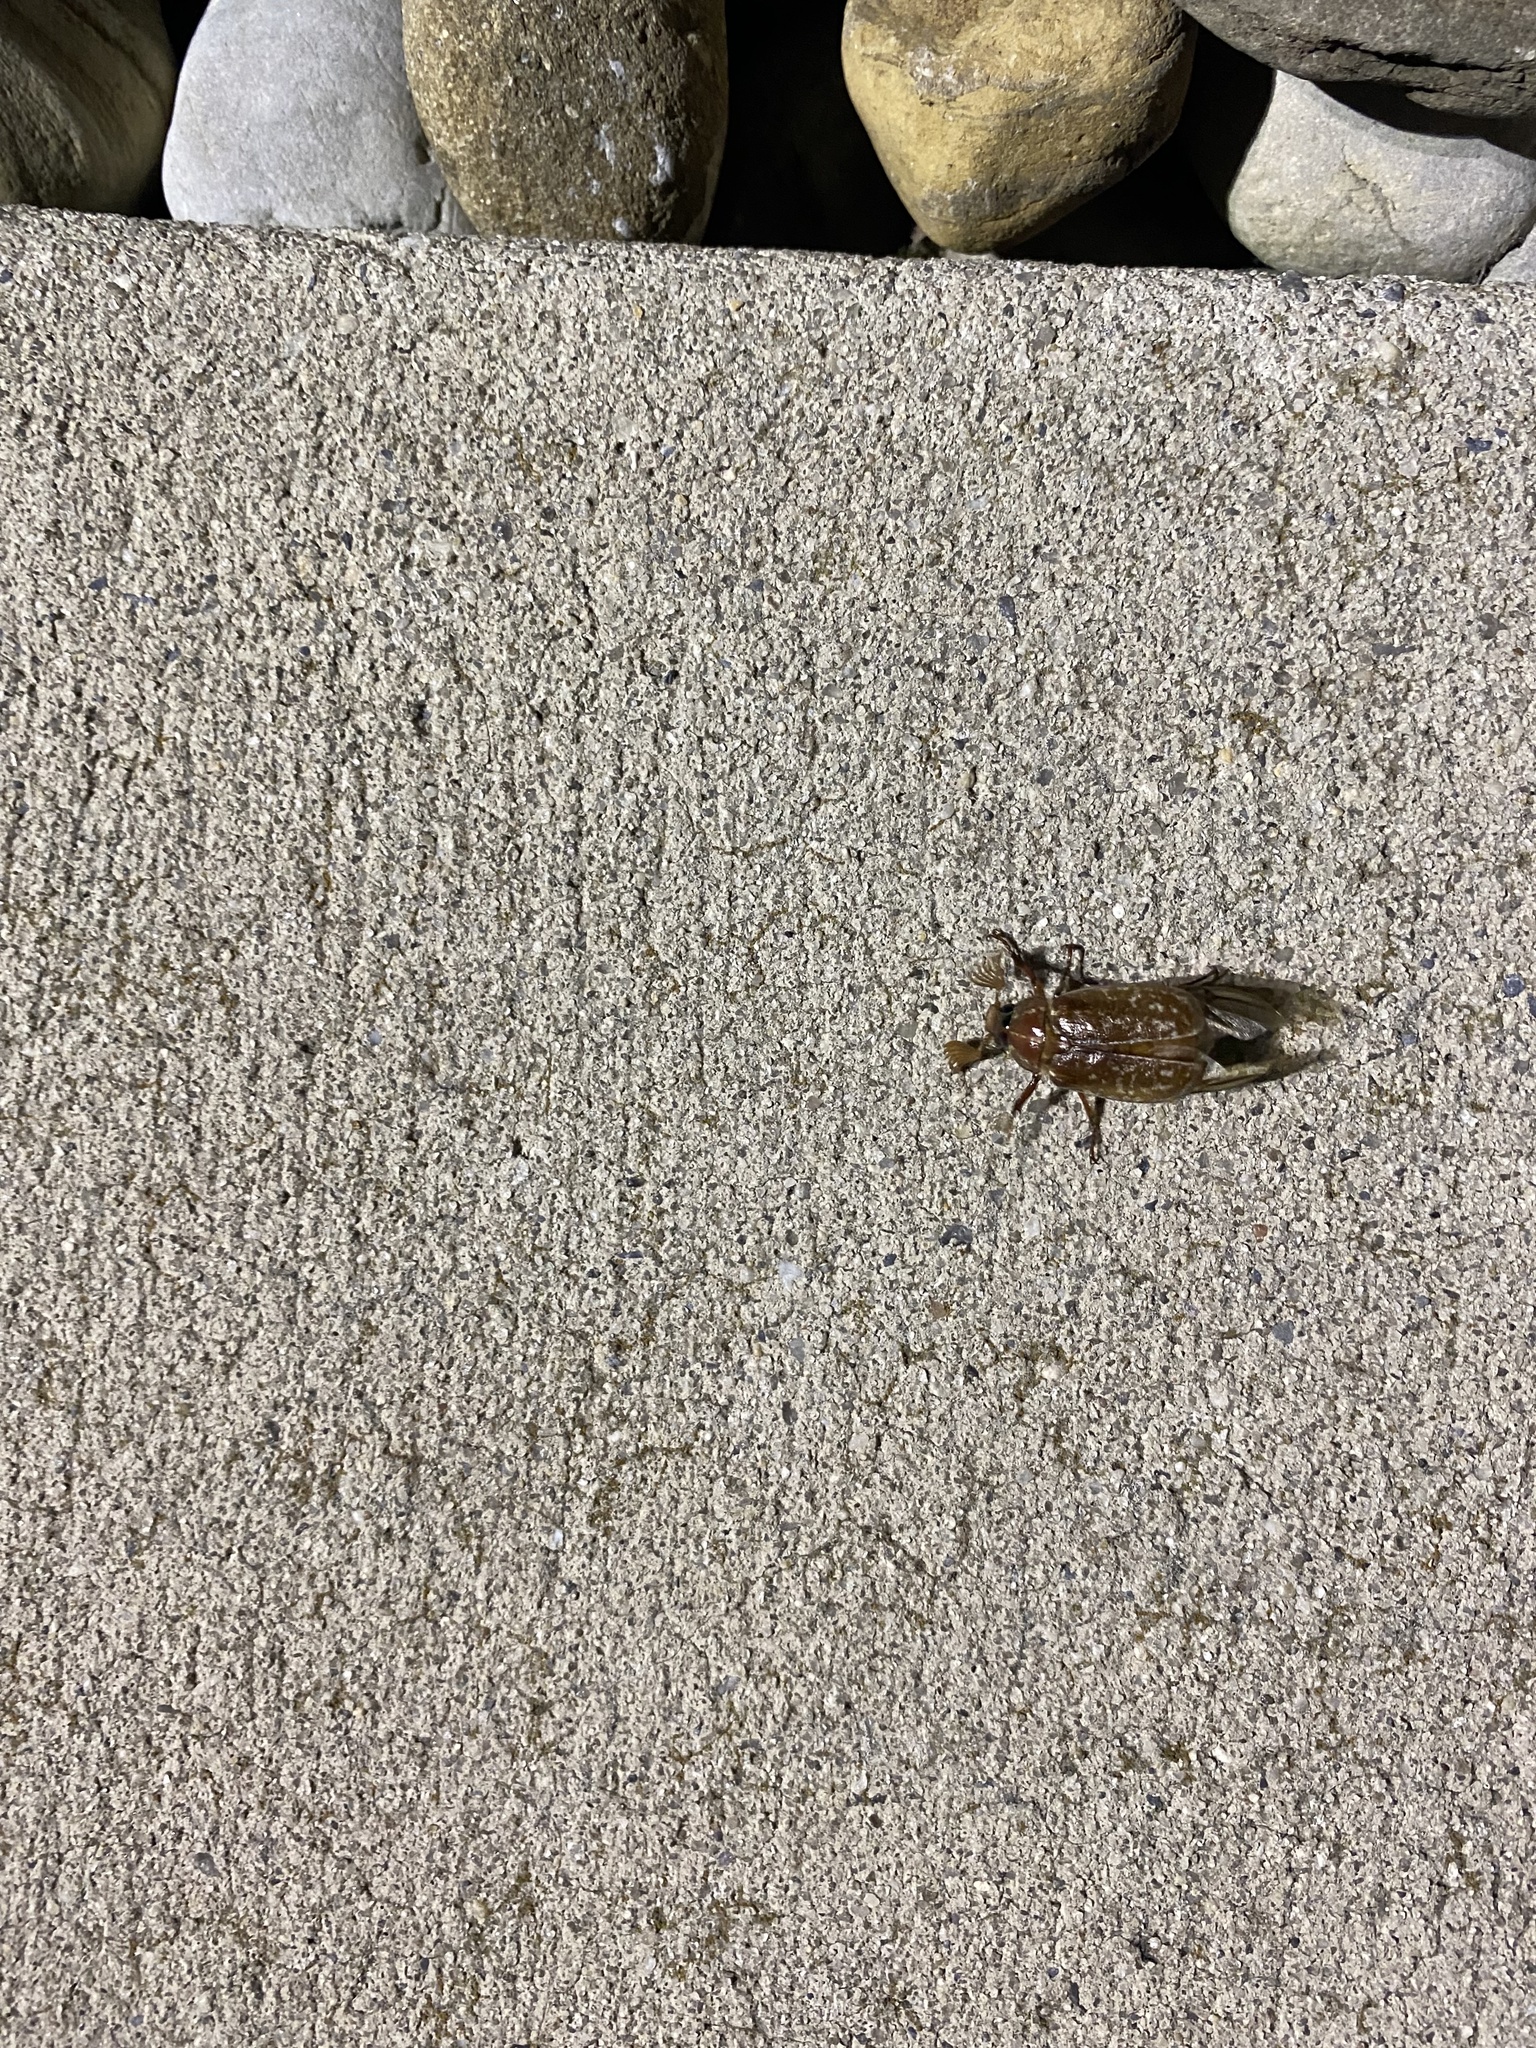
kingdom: Animalia
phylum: Arthropoda
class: Insecta
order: Coleoptera
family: Scarabaeidae
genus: Polyphylla
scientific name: Polyphylla variolosa
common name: Variegated june beetle
